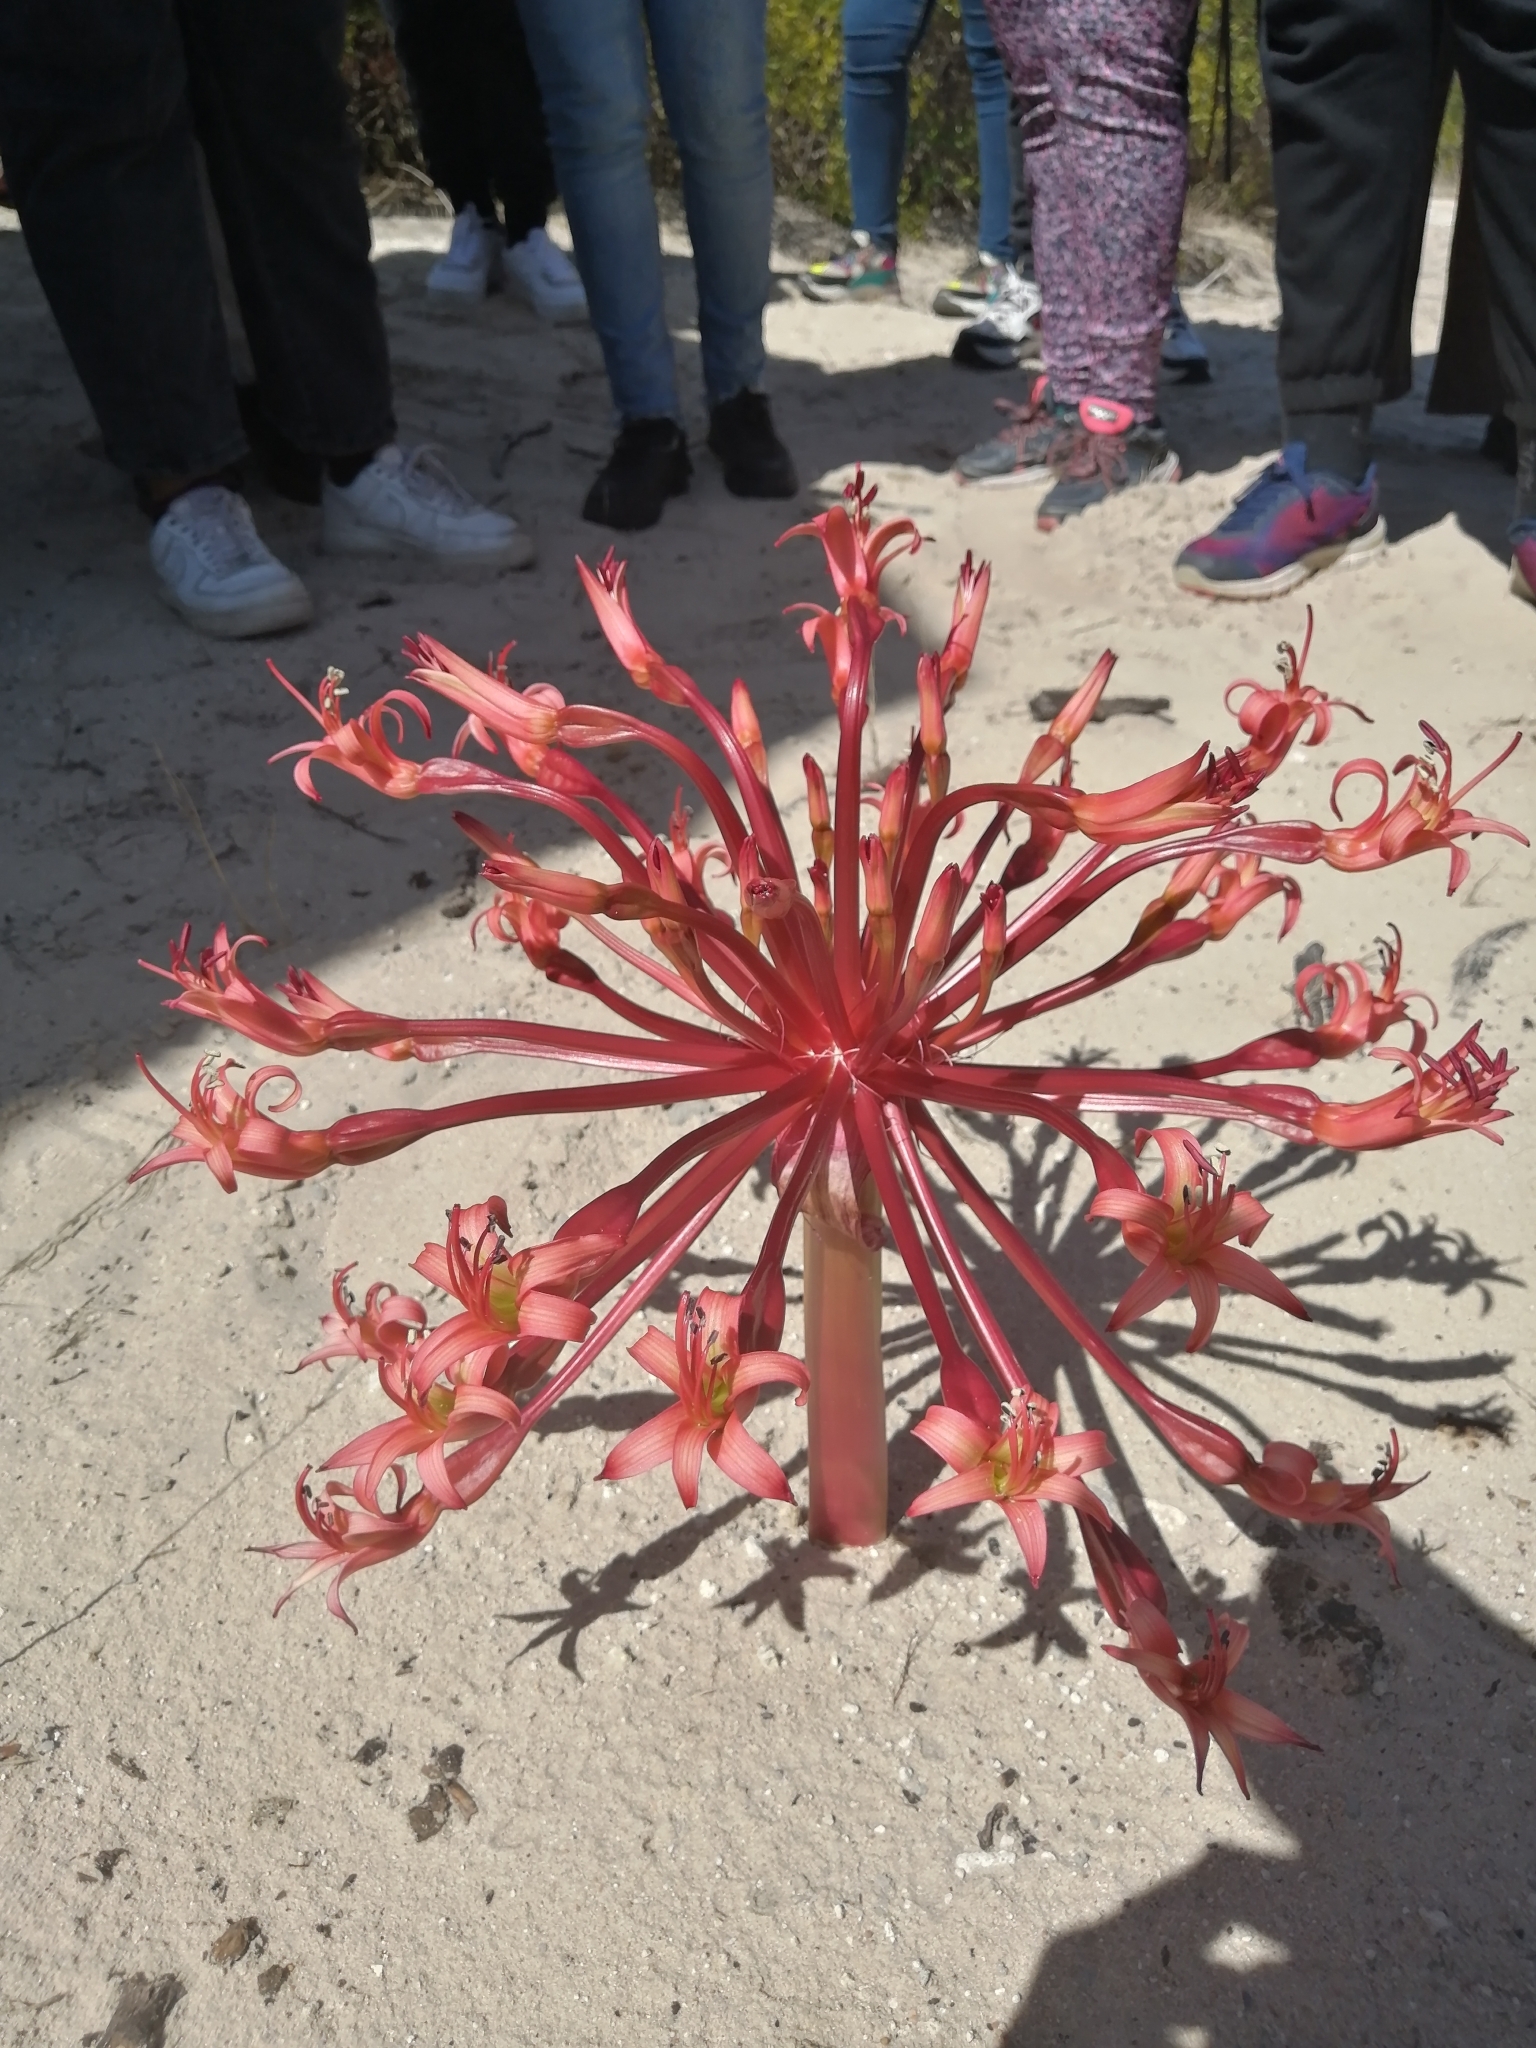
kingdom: Plantae
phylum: Tracheophyta
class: Liliopsida
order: Asparagales
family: Amaryllidaceae
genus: Brunsvigia
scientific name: Brunsvigia orientalis
